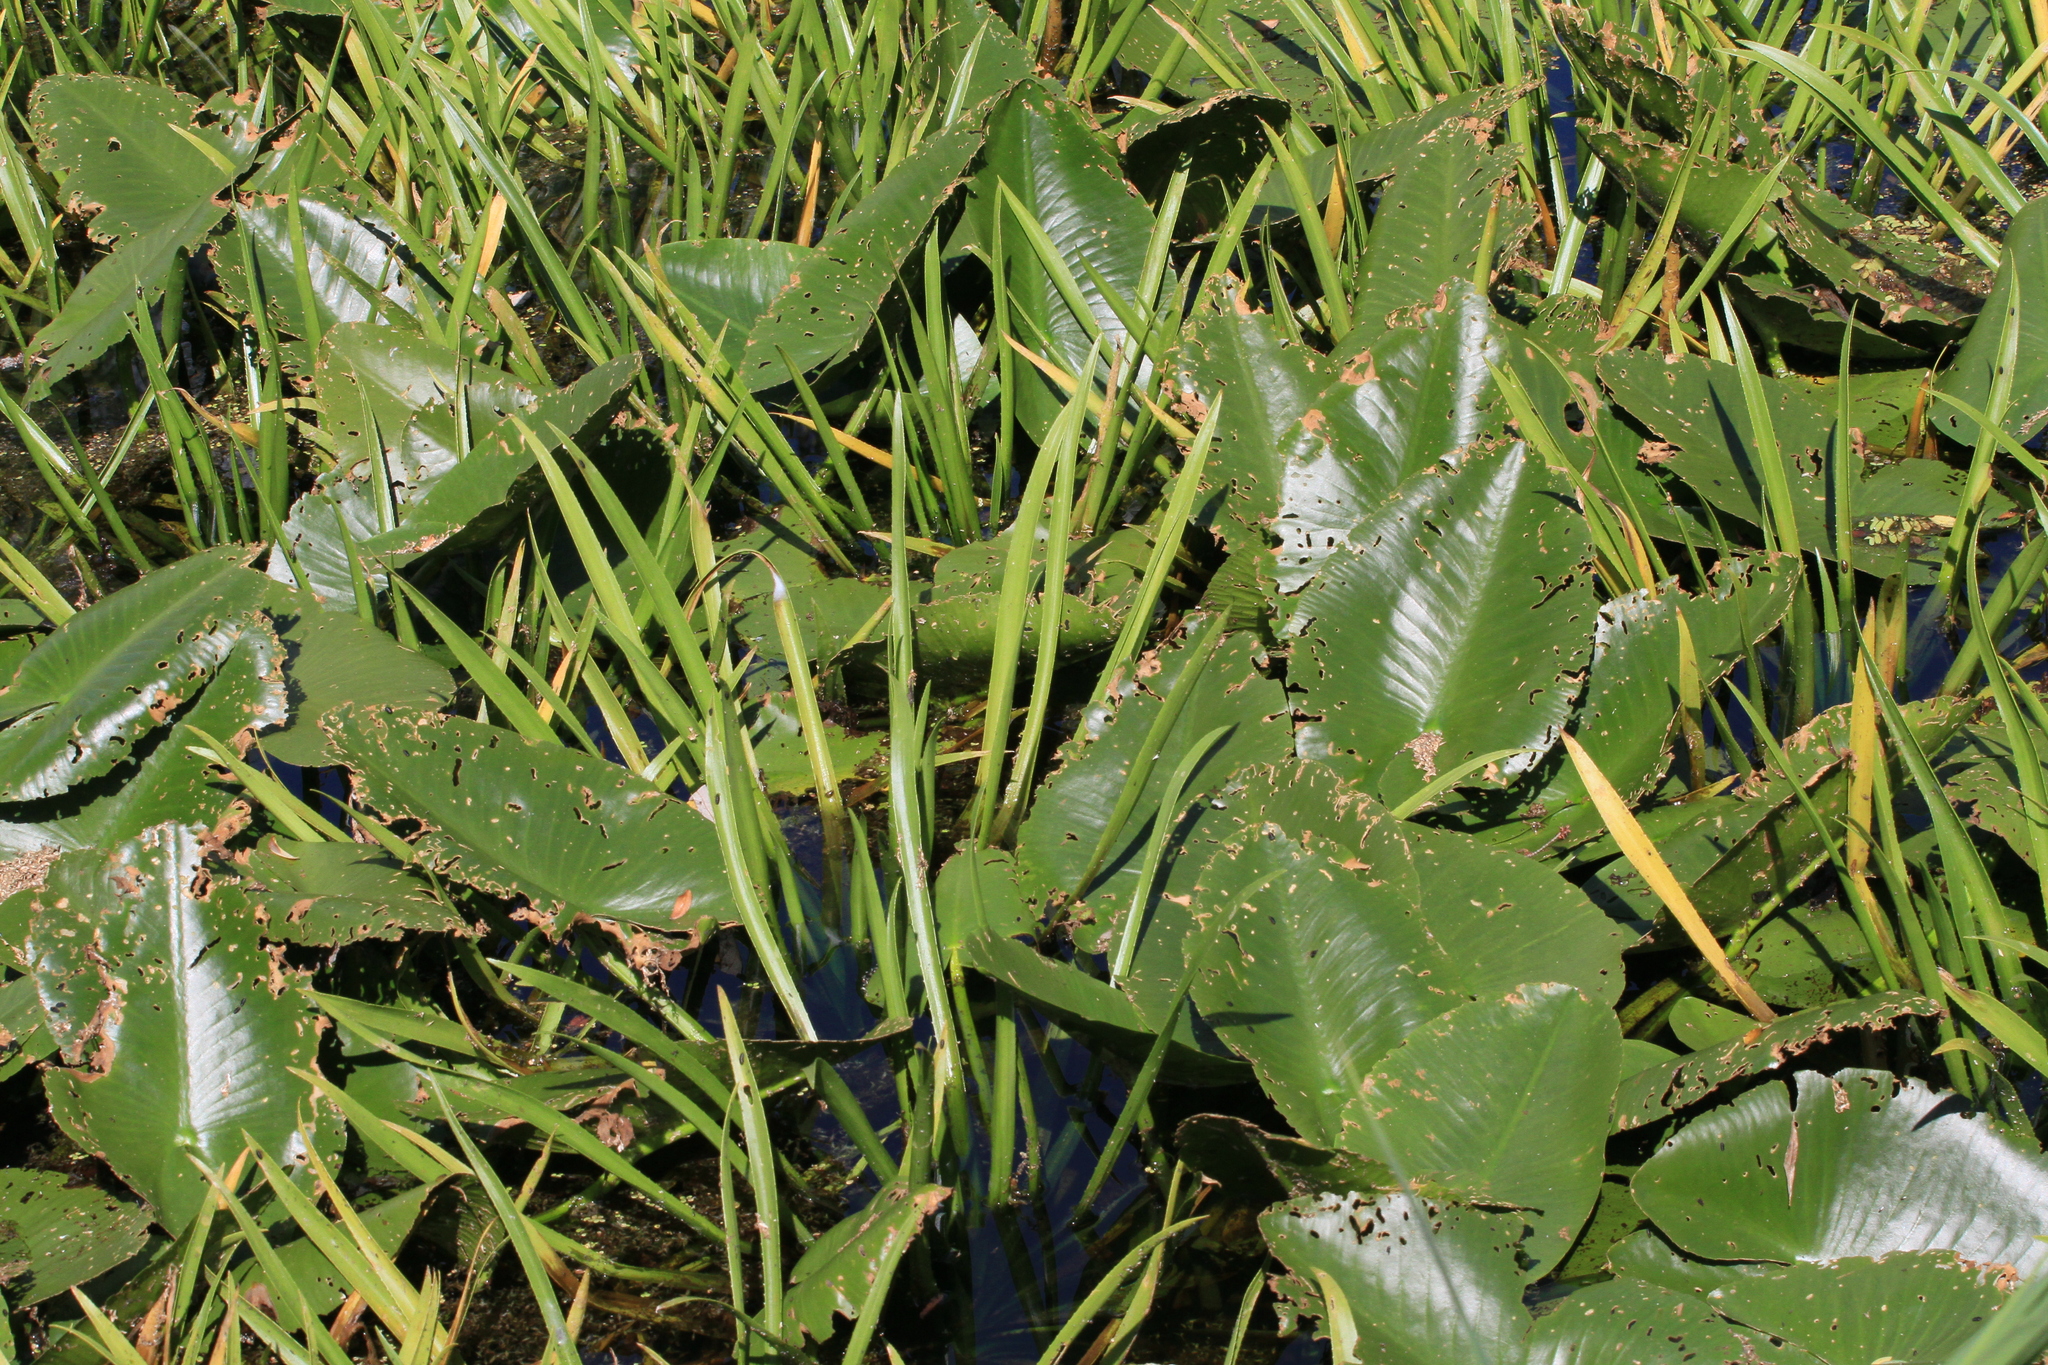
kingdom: Plantae
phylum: Tracheophyta
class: Magnoliopsida
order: Nymphaeales
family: Nymphaeaceae
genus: Nuphar
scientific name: Nuphar lutea
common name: Yellow water-lily
